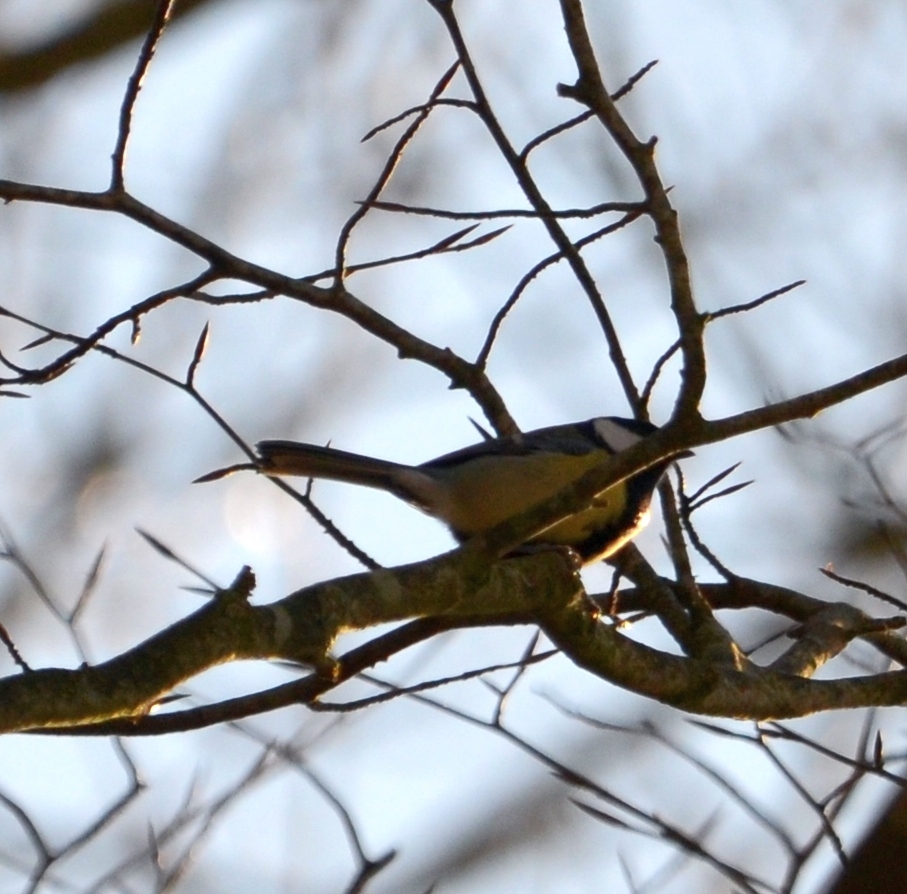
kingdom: Animalia
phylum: Chordata
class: Aves
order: Passeriformes
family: Paridae
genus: Parus
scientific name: Parus major
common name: Great tit
